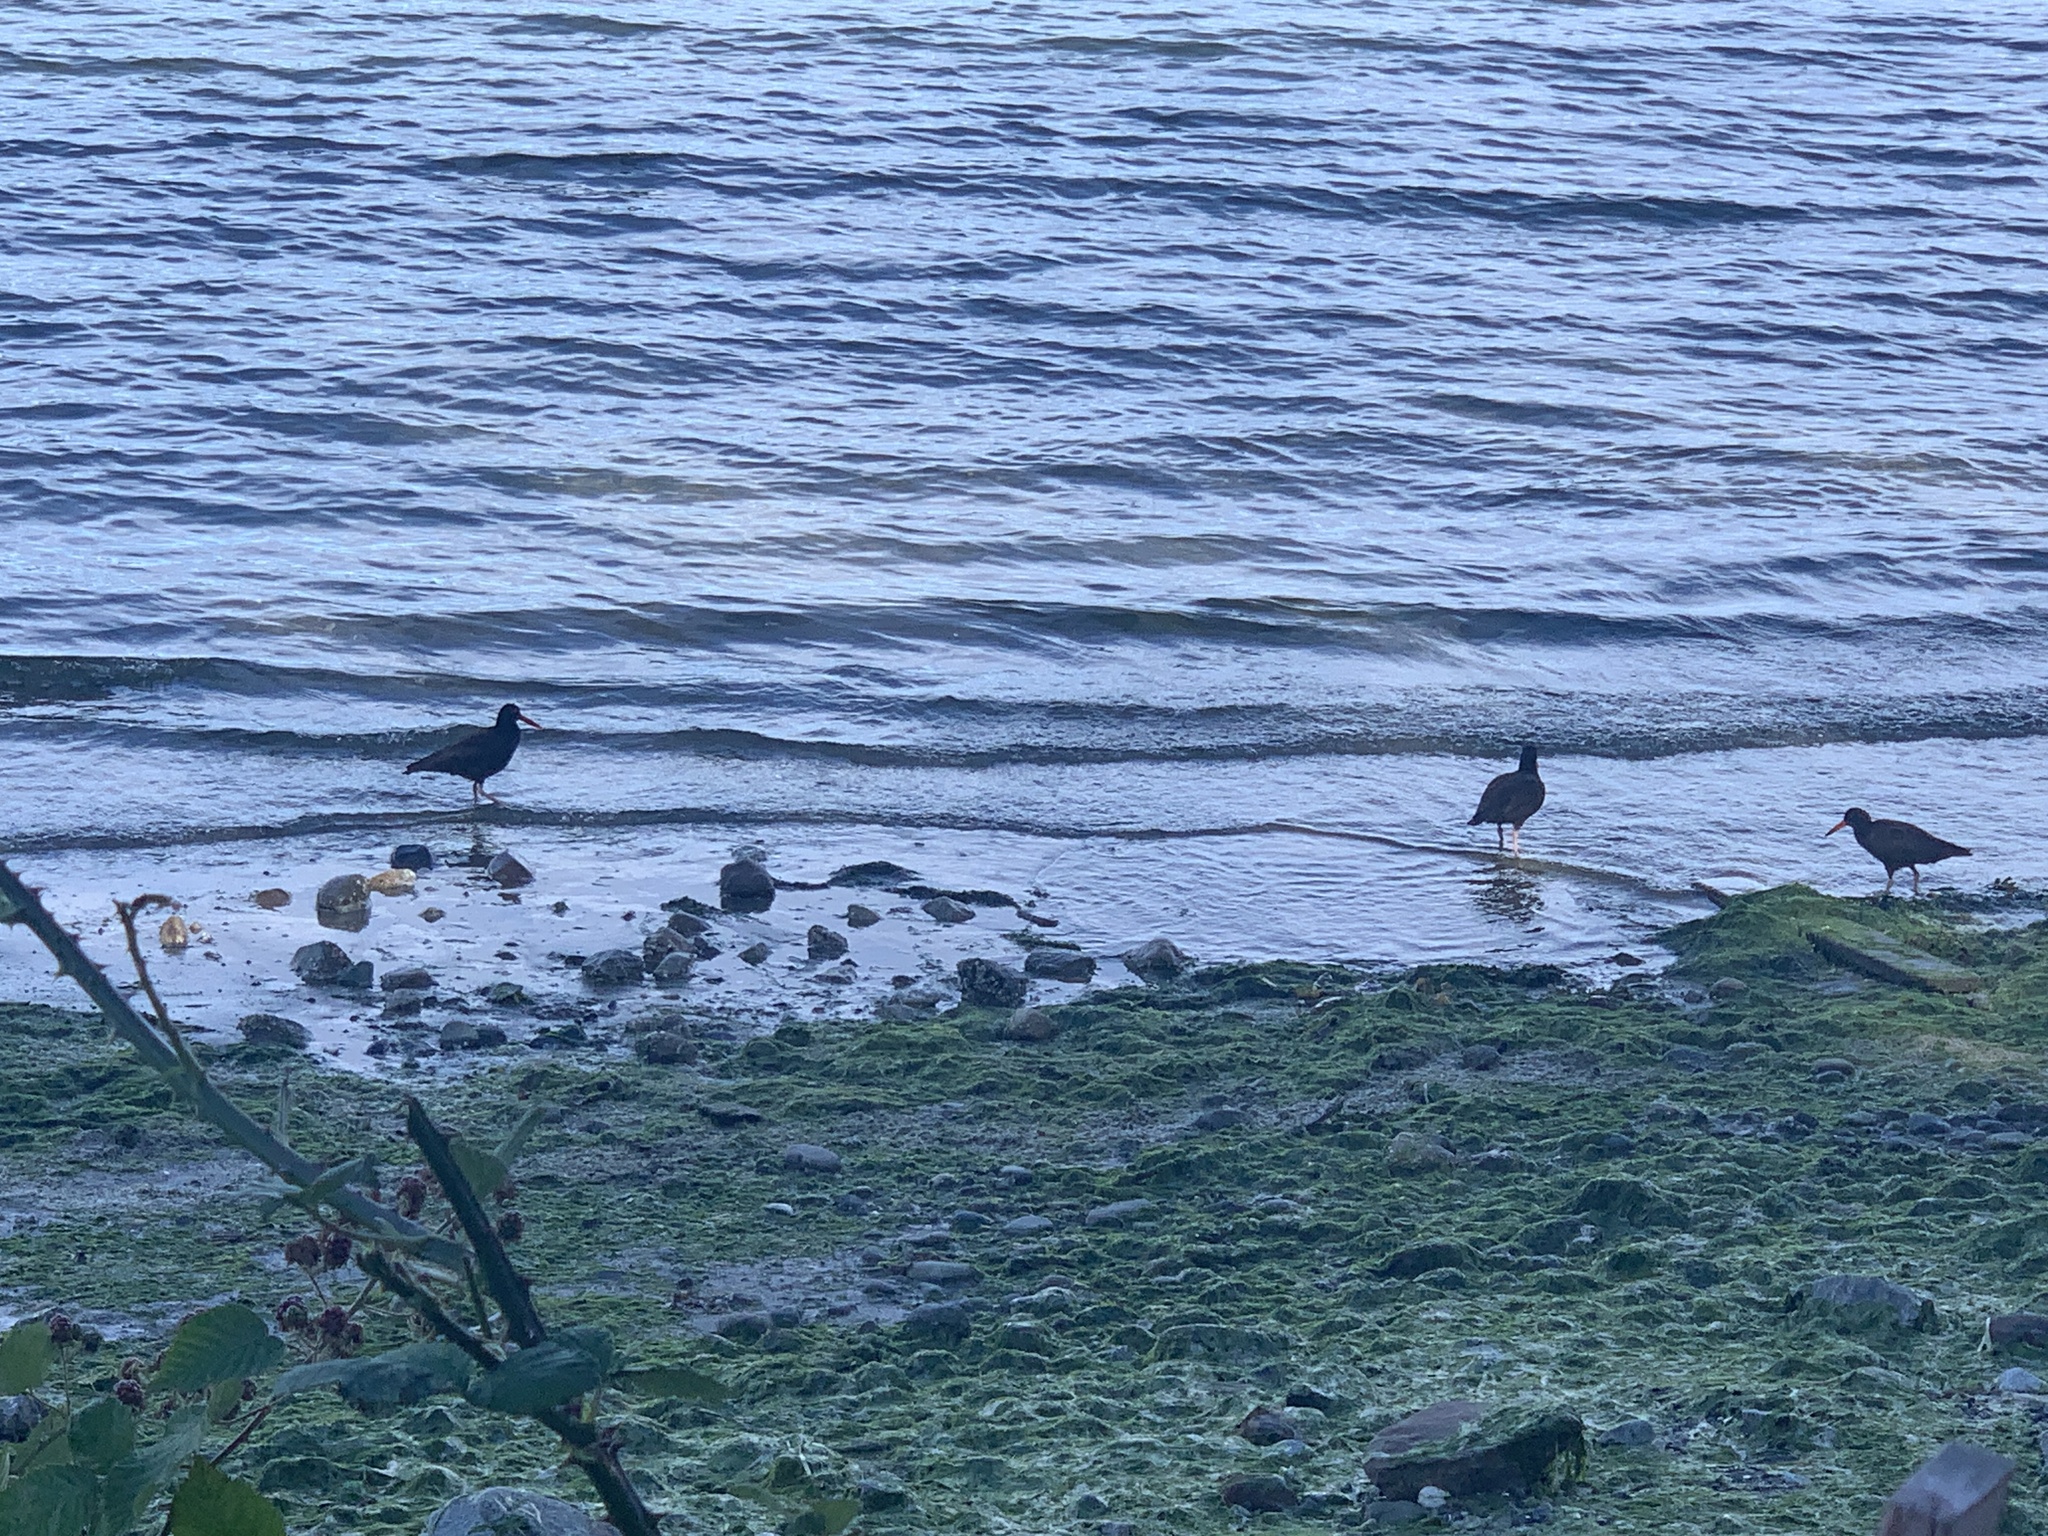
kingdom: Animalia
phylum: Chordata
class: Aves
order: Charadriiformes
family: Haematopodidae
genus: Haematopus
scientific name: Haematopus bachmani
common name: Black oystercatcher
